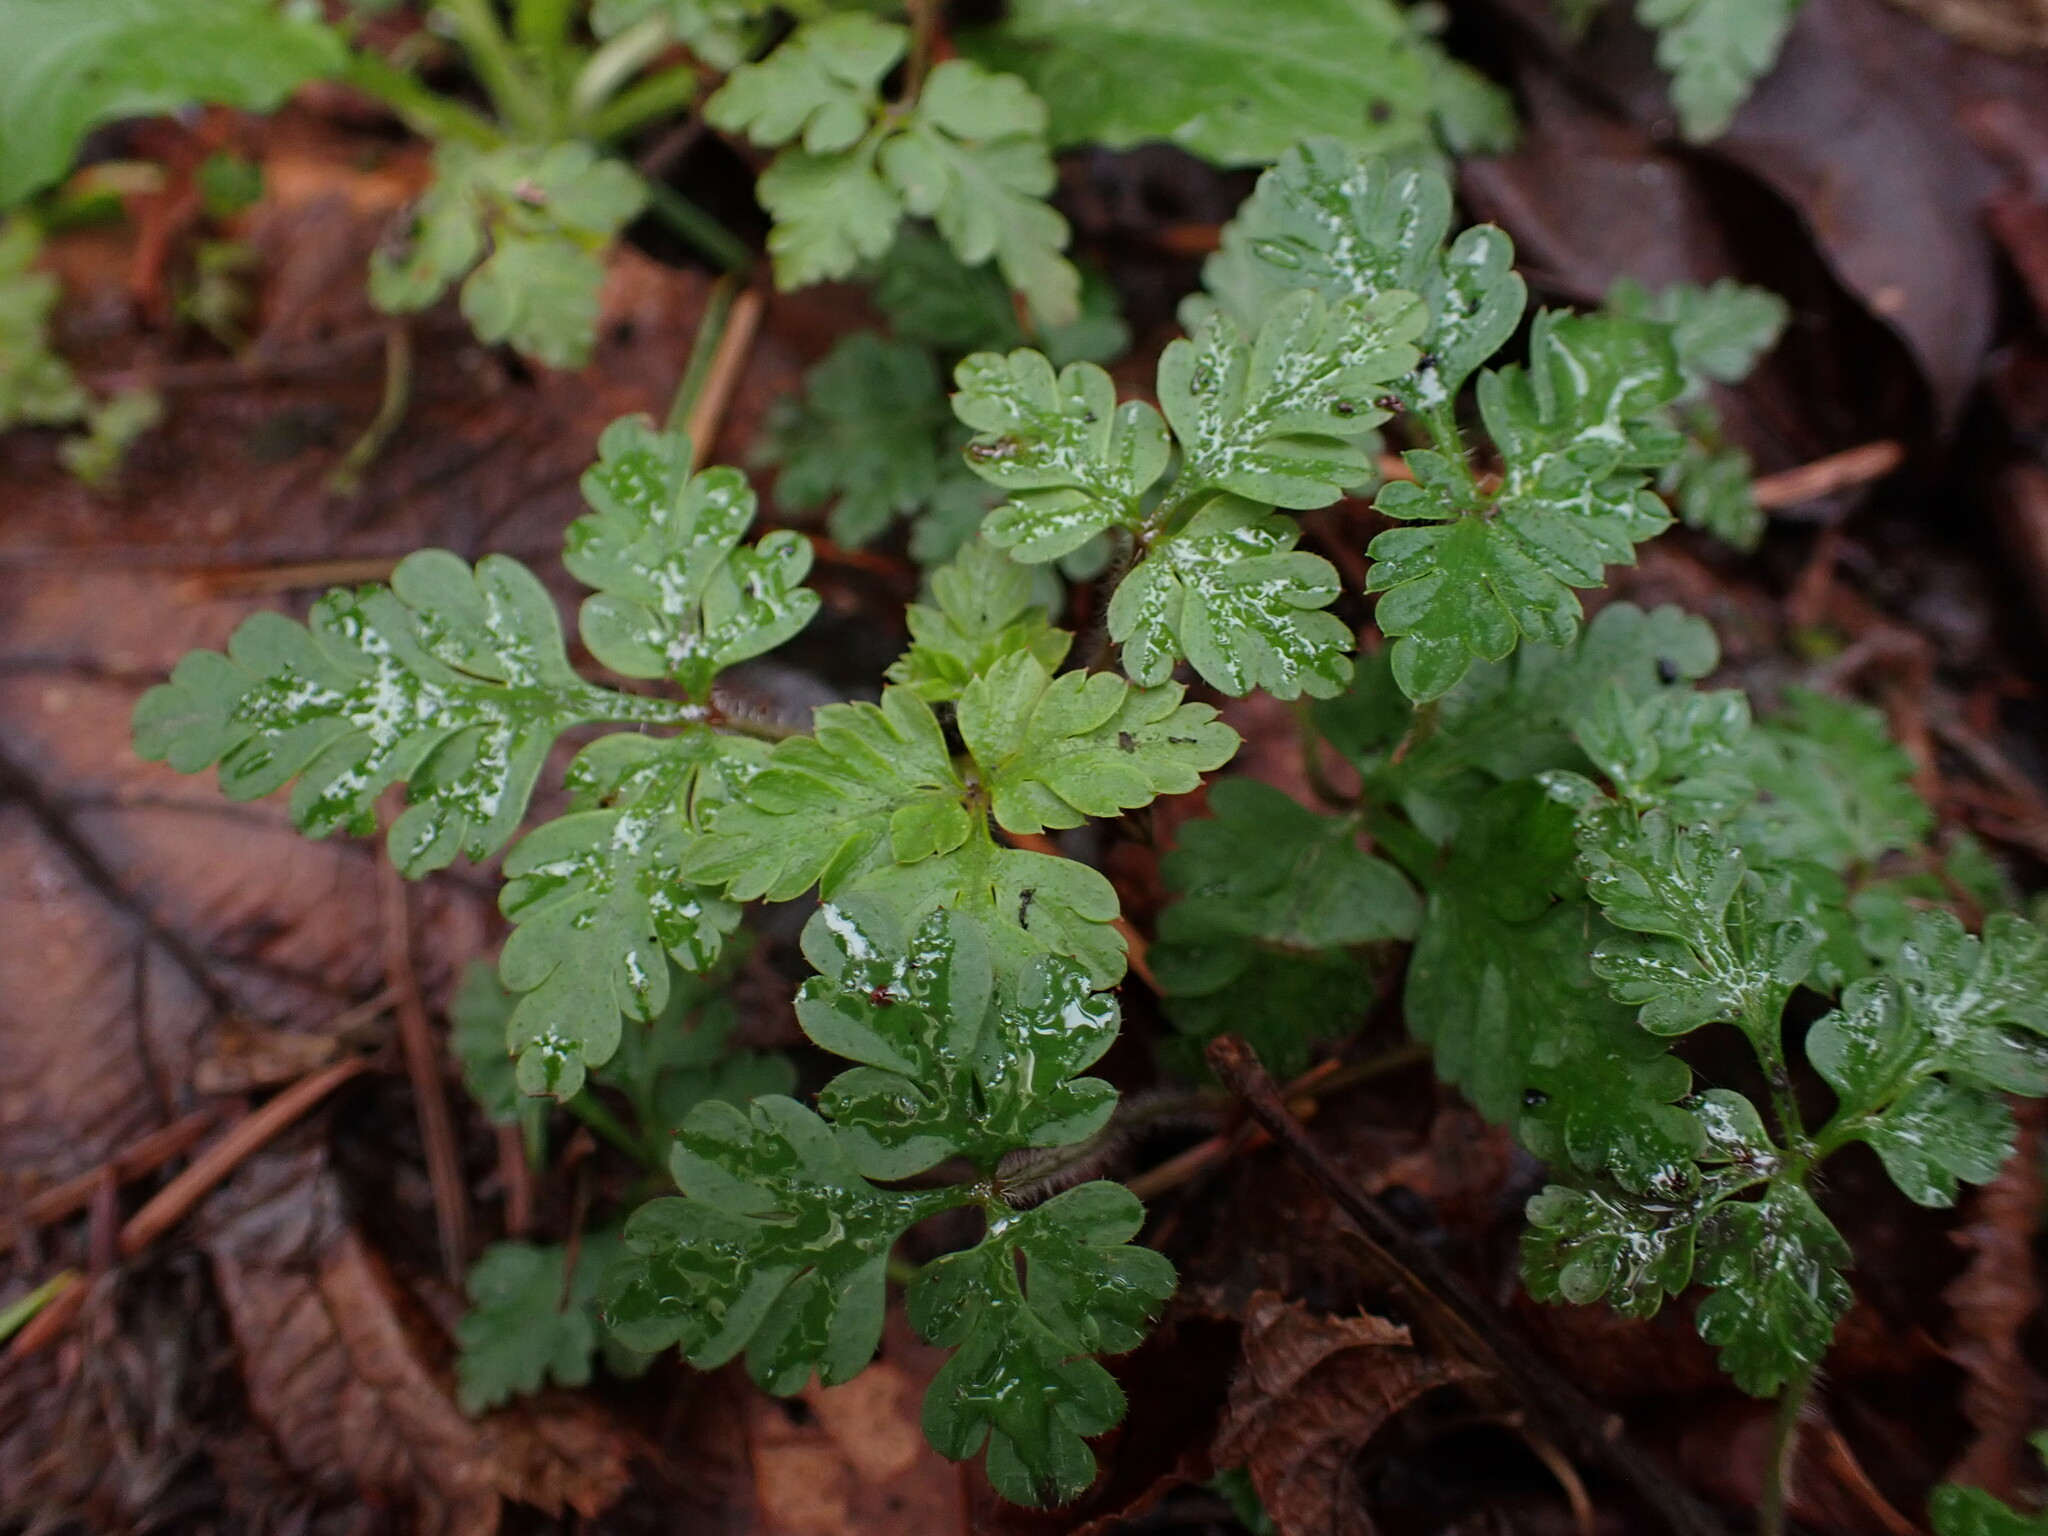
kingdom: Plantae
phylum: Tracheophyta
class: Magnoliopsida
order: Geraniales
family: Geraniaceae
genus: Geranium
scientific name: Geranium robertianum
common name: Herb-robert
